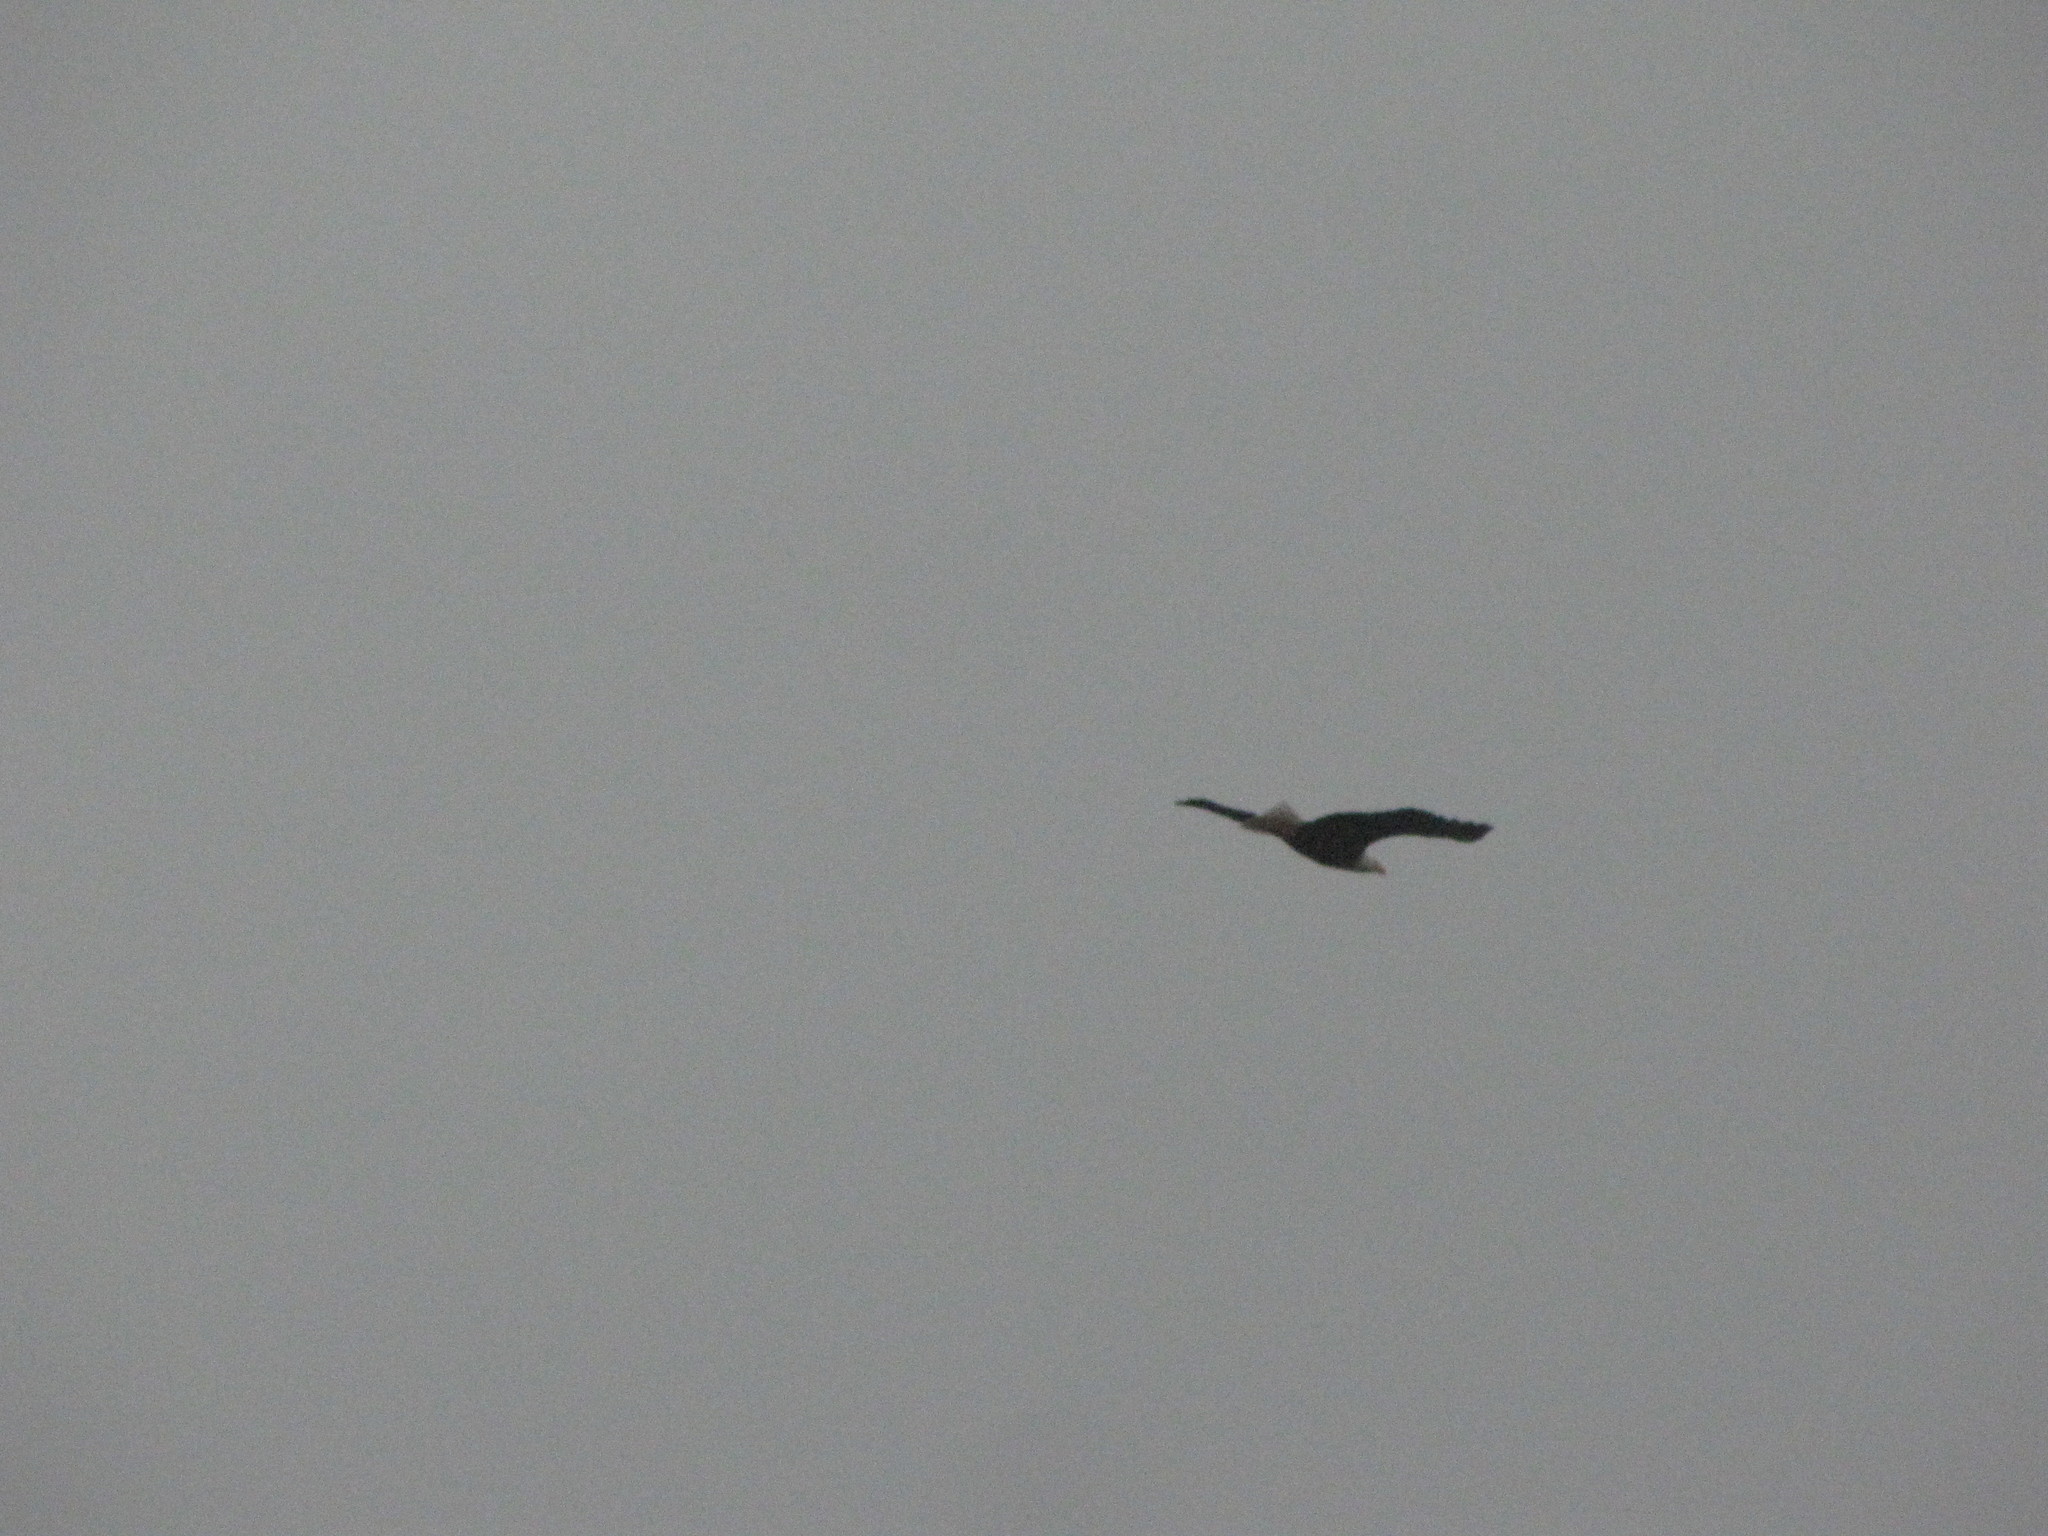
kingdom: Animalia
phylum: Chordata
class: Aves
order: Accipitriformes
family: Accipitridae
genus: Haliaeetus
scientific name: Haliaeetus leucocephalus
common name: Bald eagle
